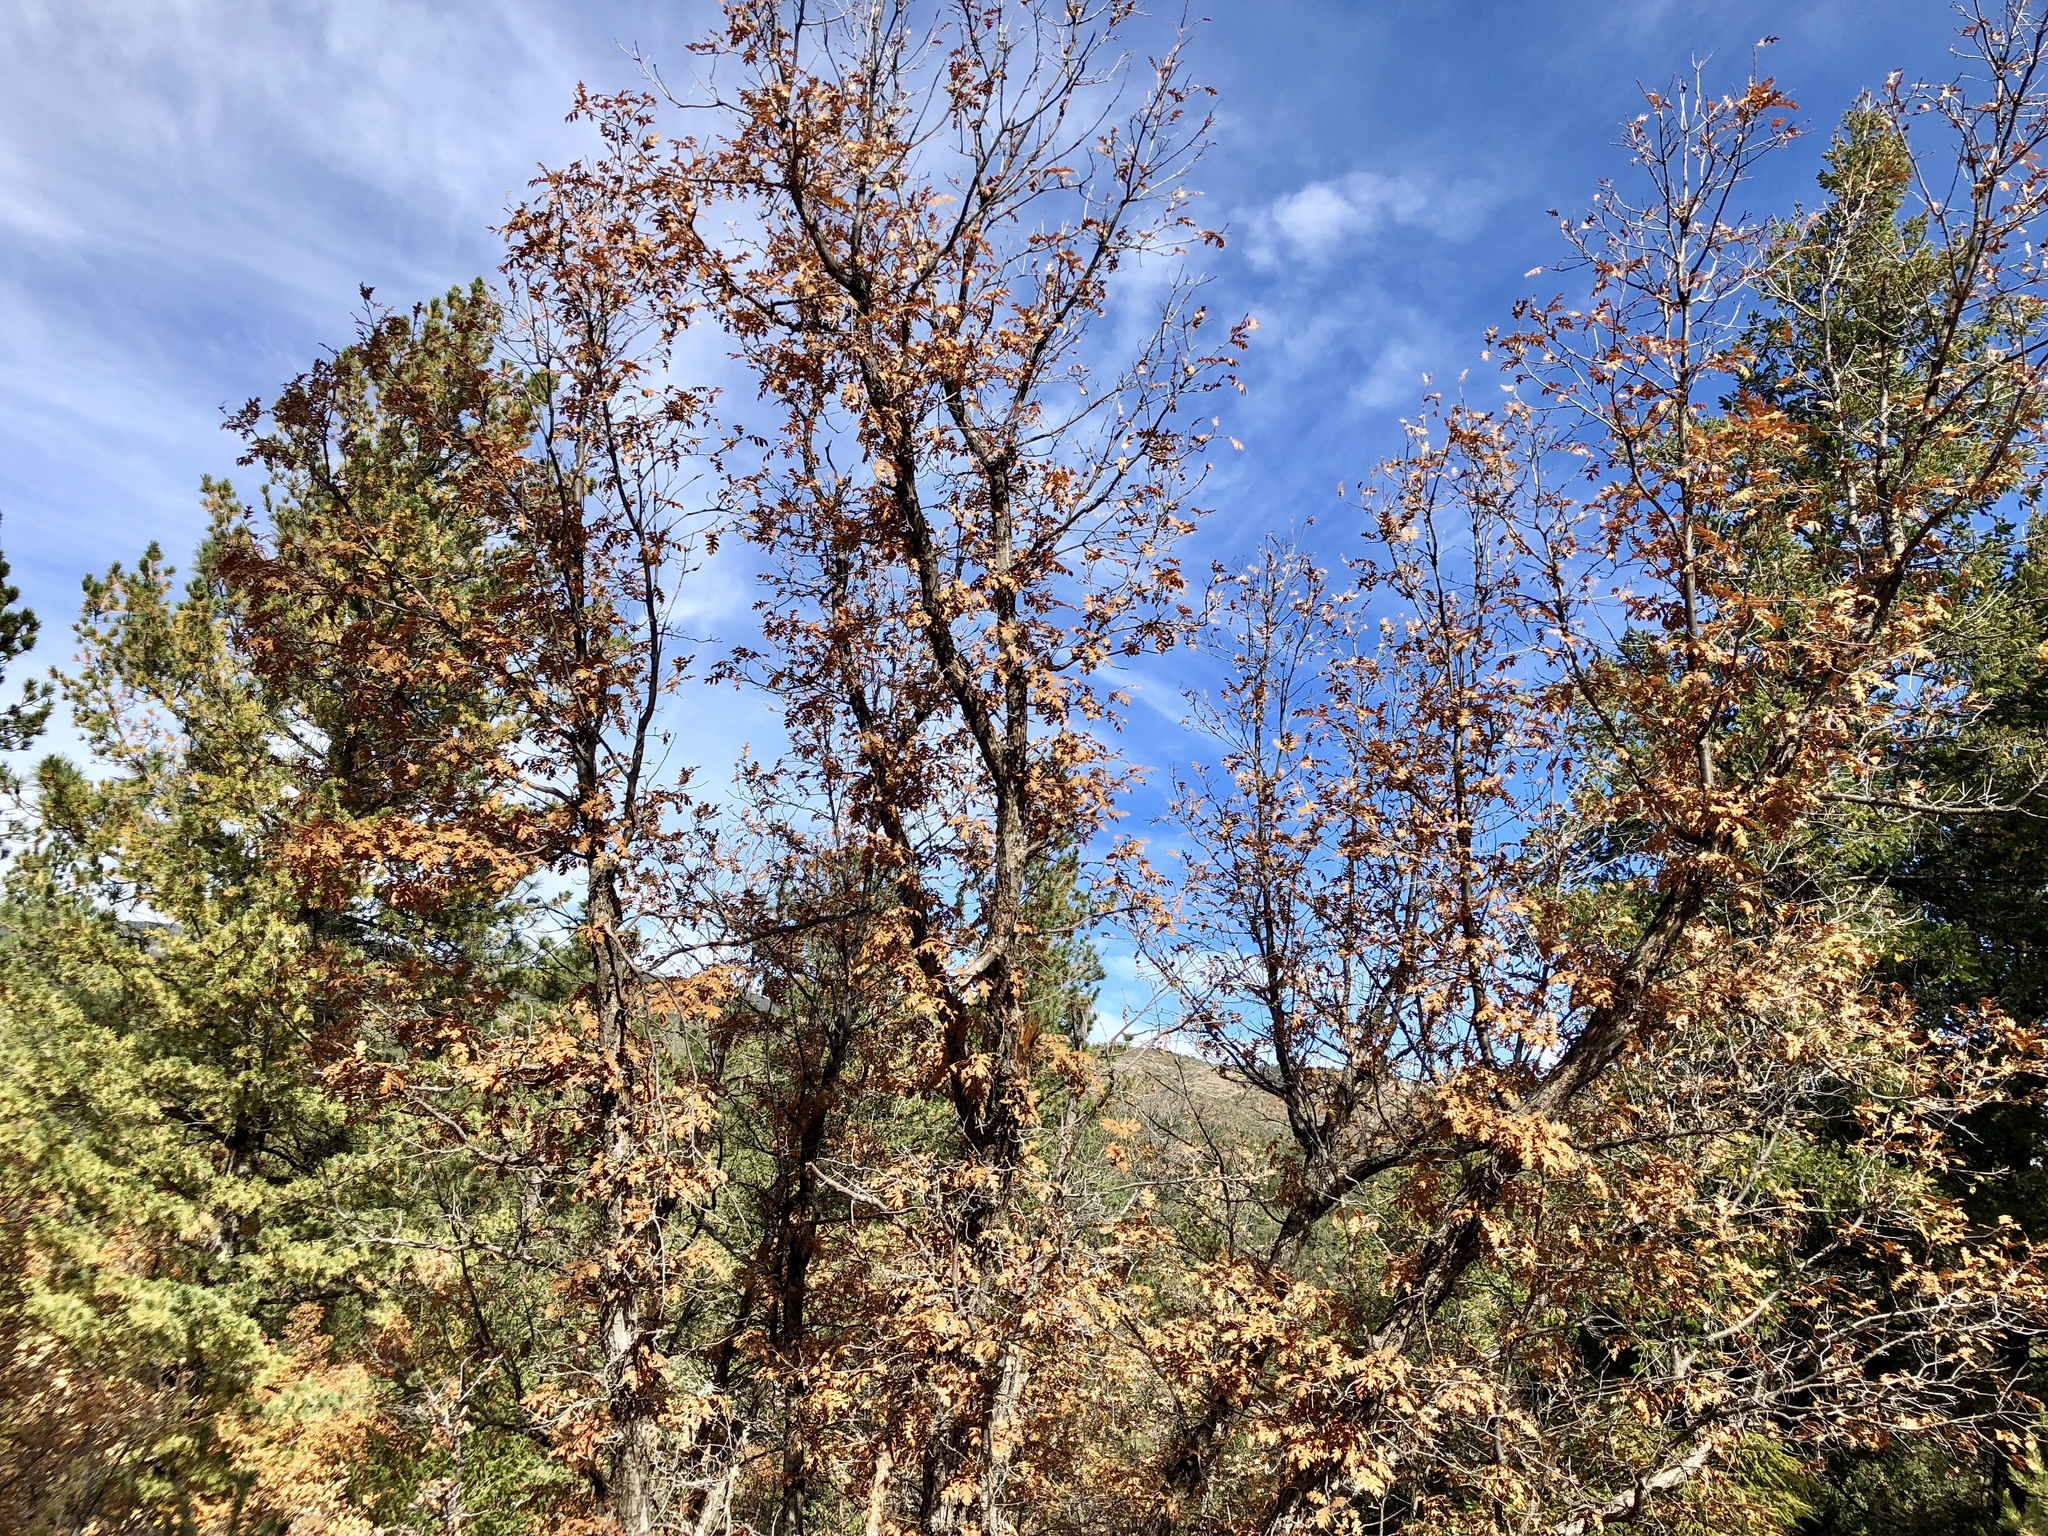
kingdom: Plantae
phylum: Tracheophyta
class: Magnoliopsida
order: Fagales
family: Fagaceae
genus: Quercus
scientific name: Quercus gambelii
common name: Gambel oak
